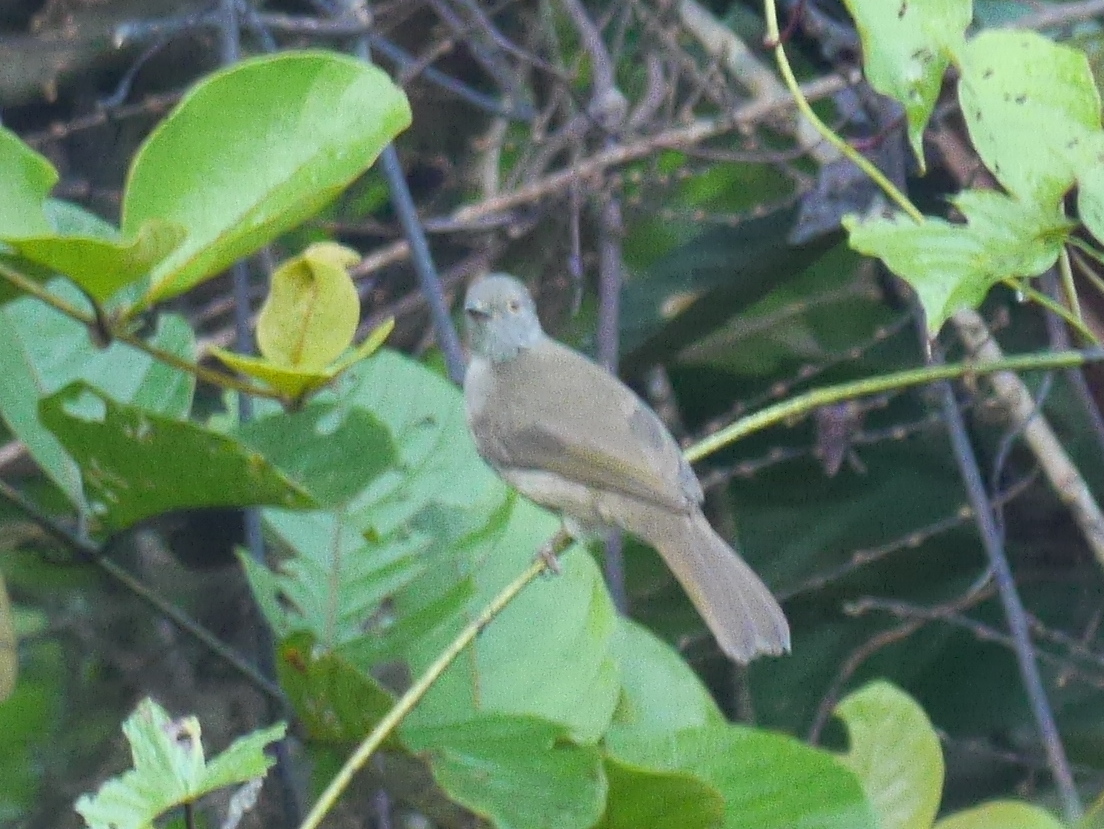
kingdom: Animalia
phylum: Chordata
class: Aves
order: Passeriformes
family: Pycnonotidae
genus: Rubigula
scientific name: Rubigula erythropthalmos
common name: Spectacled bulbul
